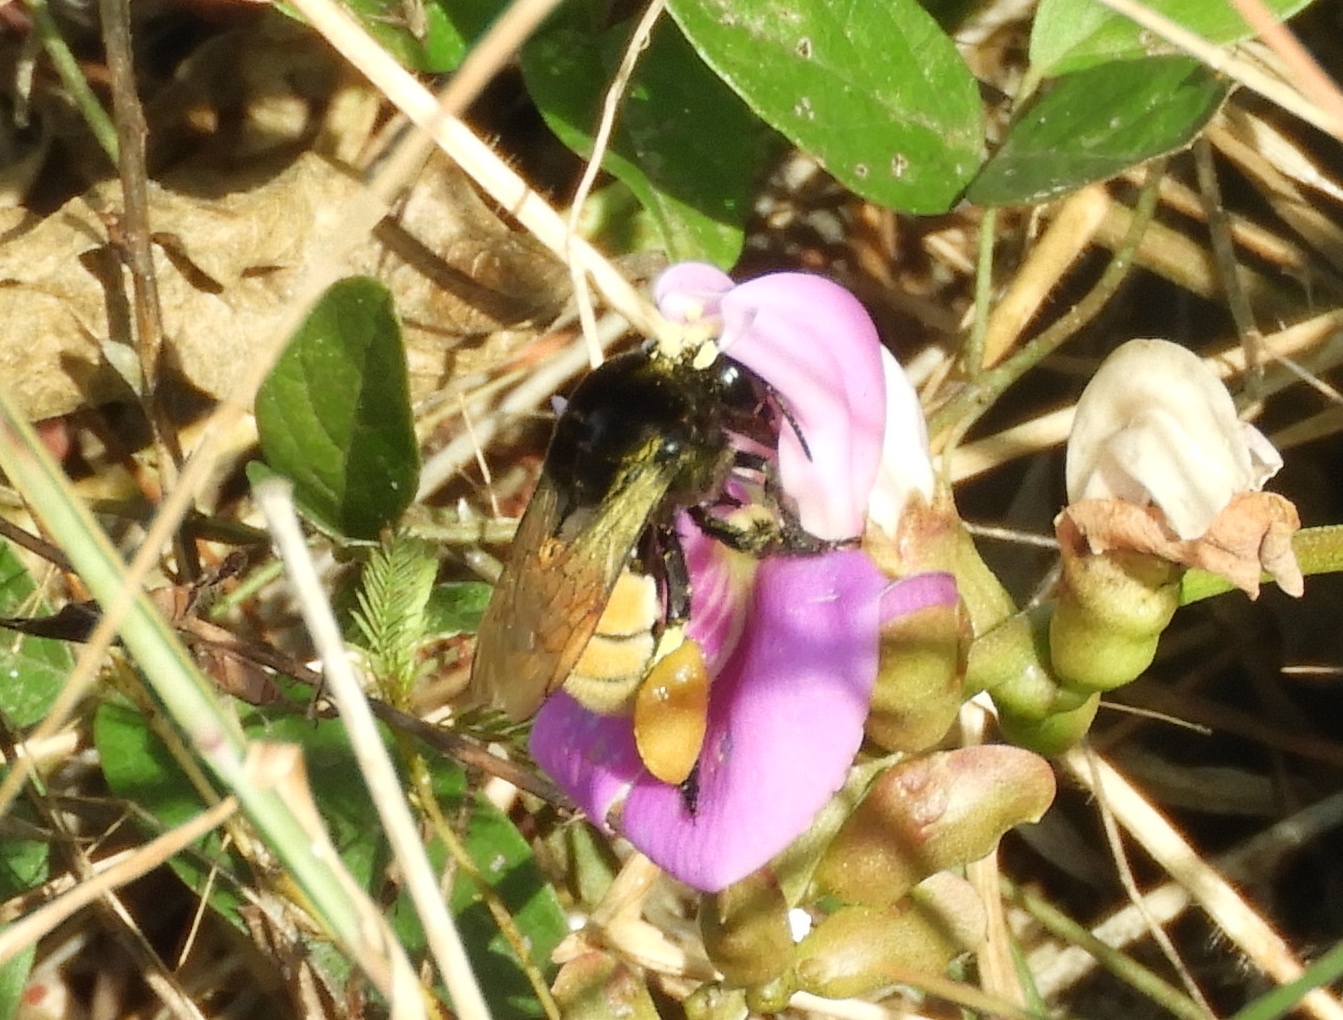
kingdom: Animalia
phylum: Arthropoda
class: Insecta
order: Hymenoptera
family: Apidae
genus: Eulaema
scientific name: Eulaema polychroma
